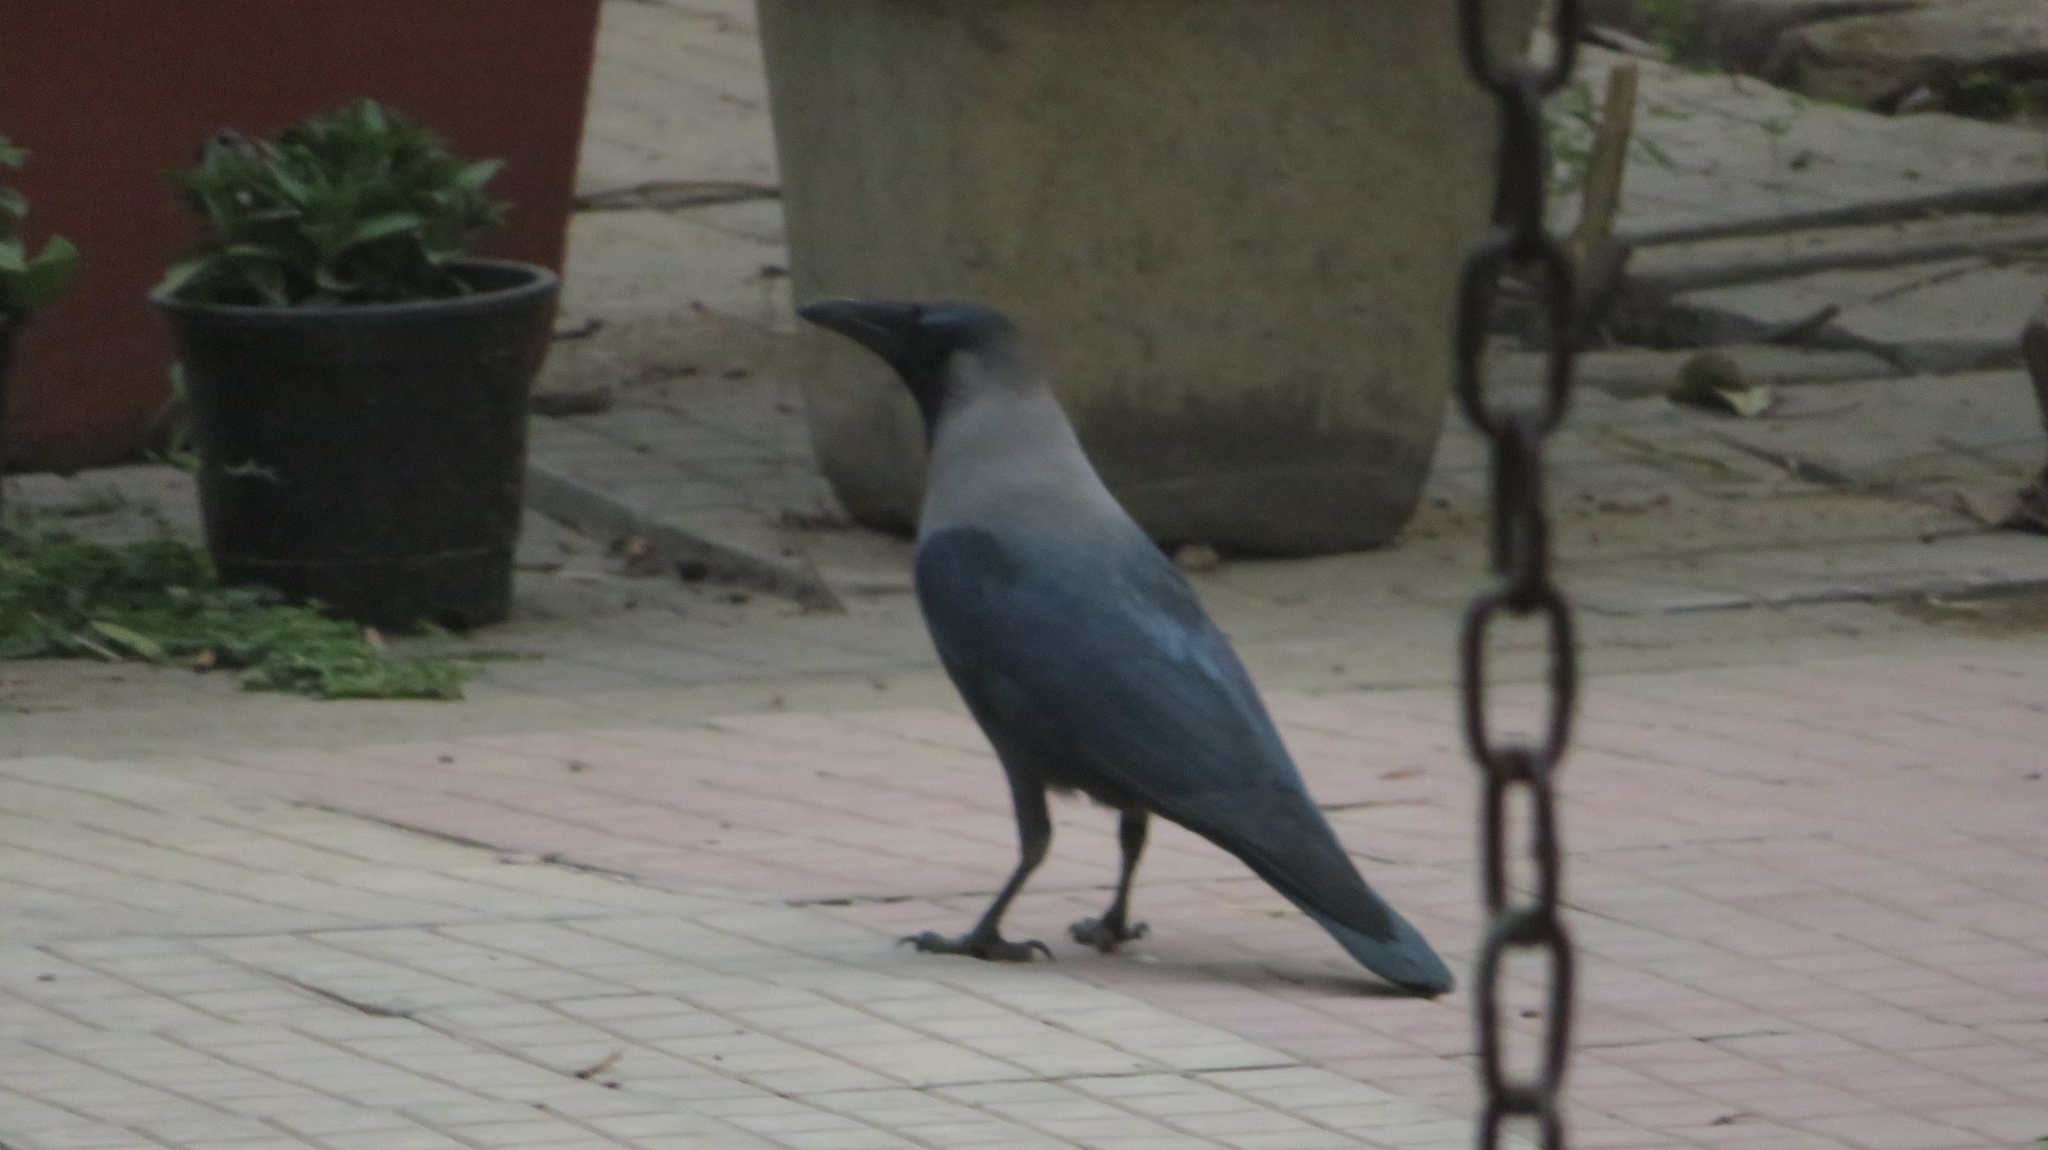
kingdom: Animalia
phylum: Chordata
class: Aves
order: Passeriformes
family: Corvidae
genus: Corvus
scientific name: Corvus splendens
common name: House crow
